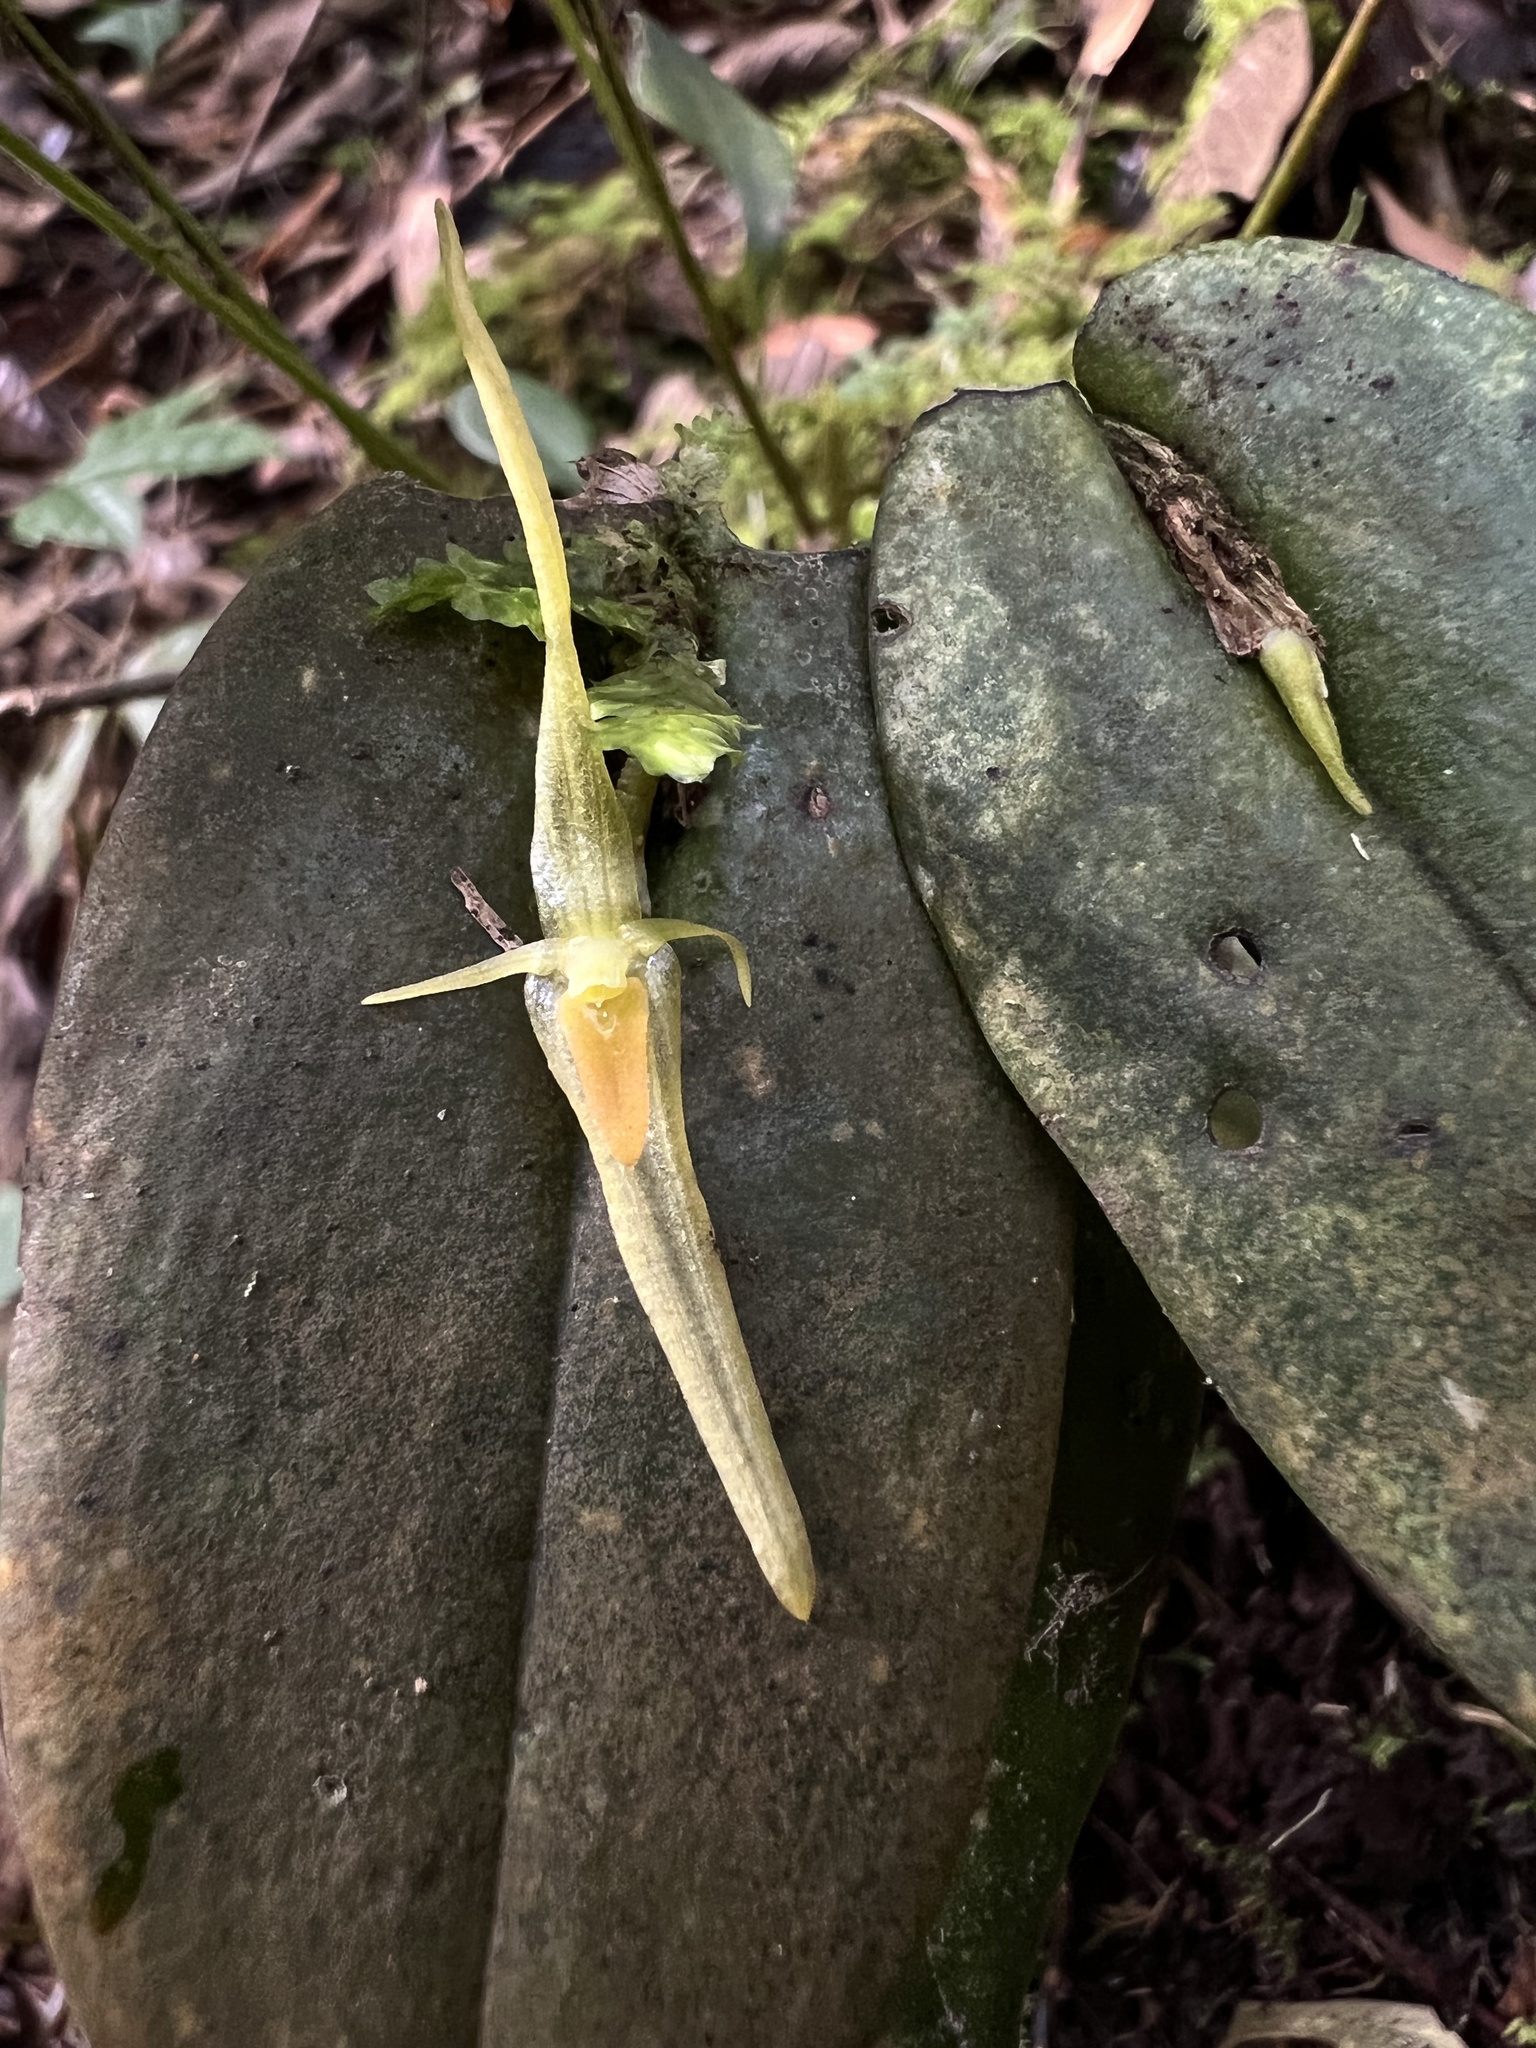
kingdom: Plantae
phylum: Tracheophyta
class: Liliopsida
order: Asparagales
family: Orchidaceae
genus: Pleurothallis
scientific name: Pleurothallis microcardia
